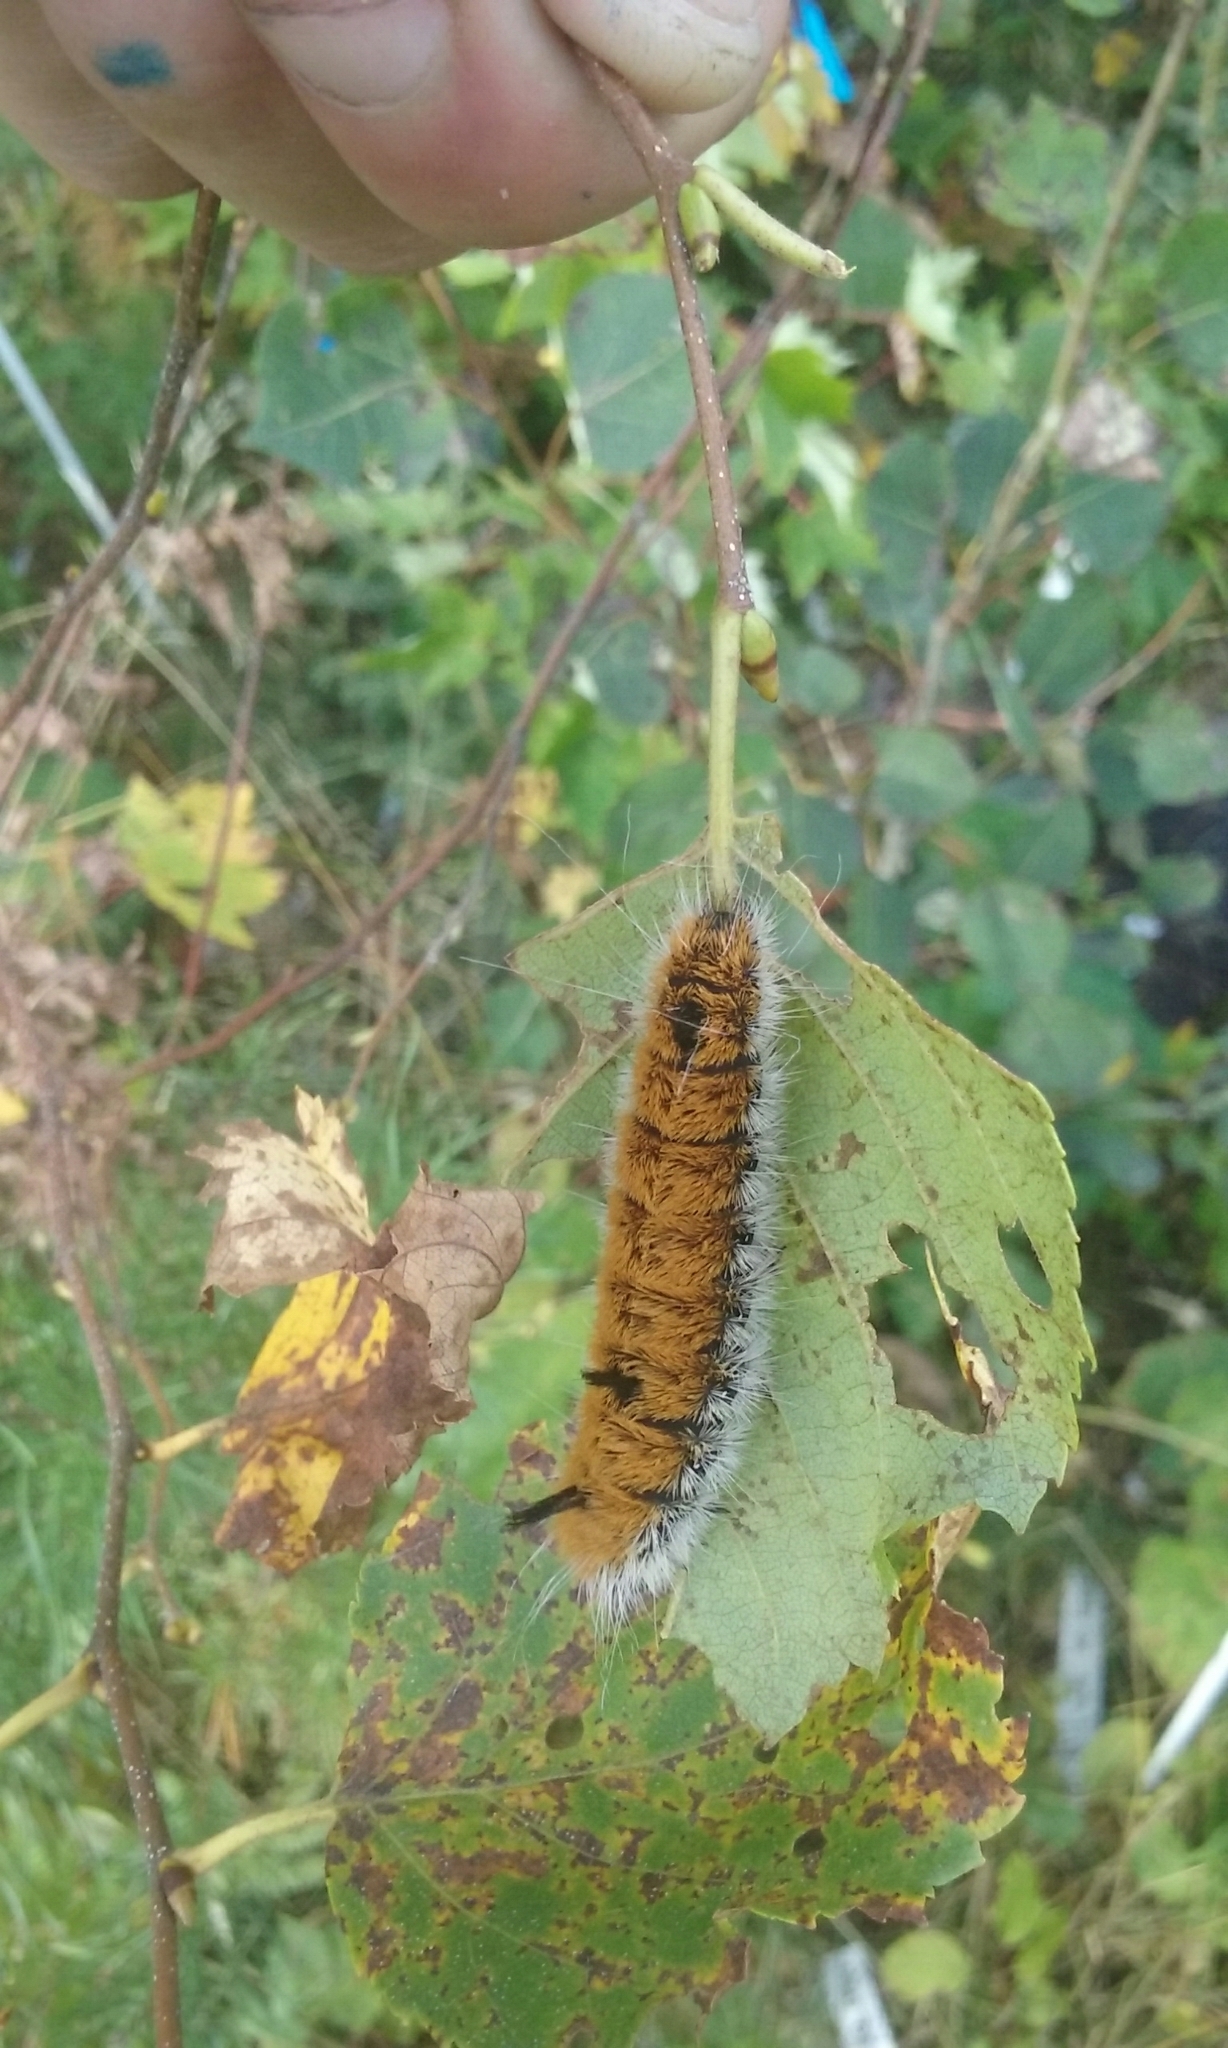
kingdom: Animalia
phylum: Arthropoda
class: Insecta
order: Lepidoptera
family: Noctuidae
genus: Acronicta
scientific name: Acronicta insita
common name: Large gray dagger
